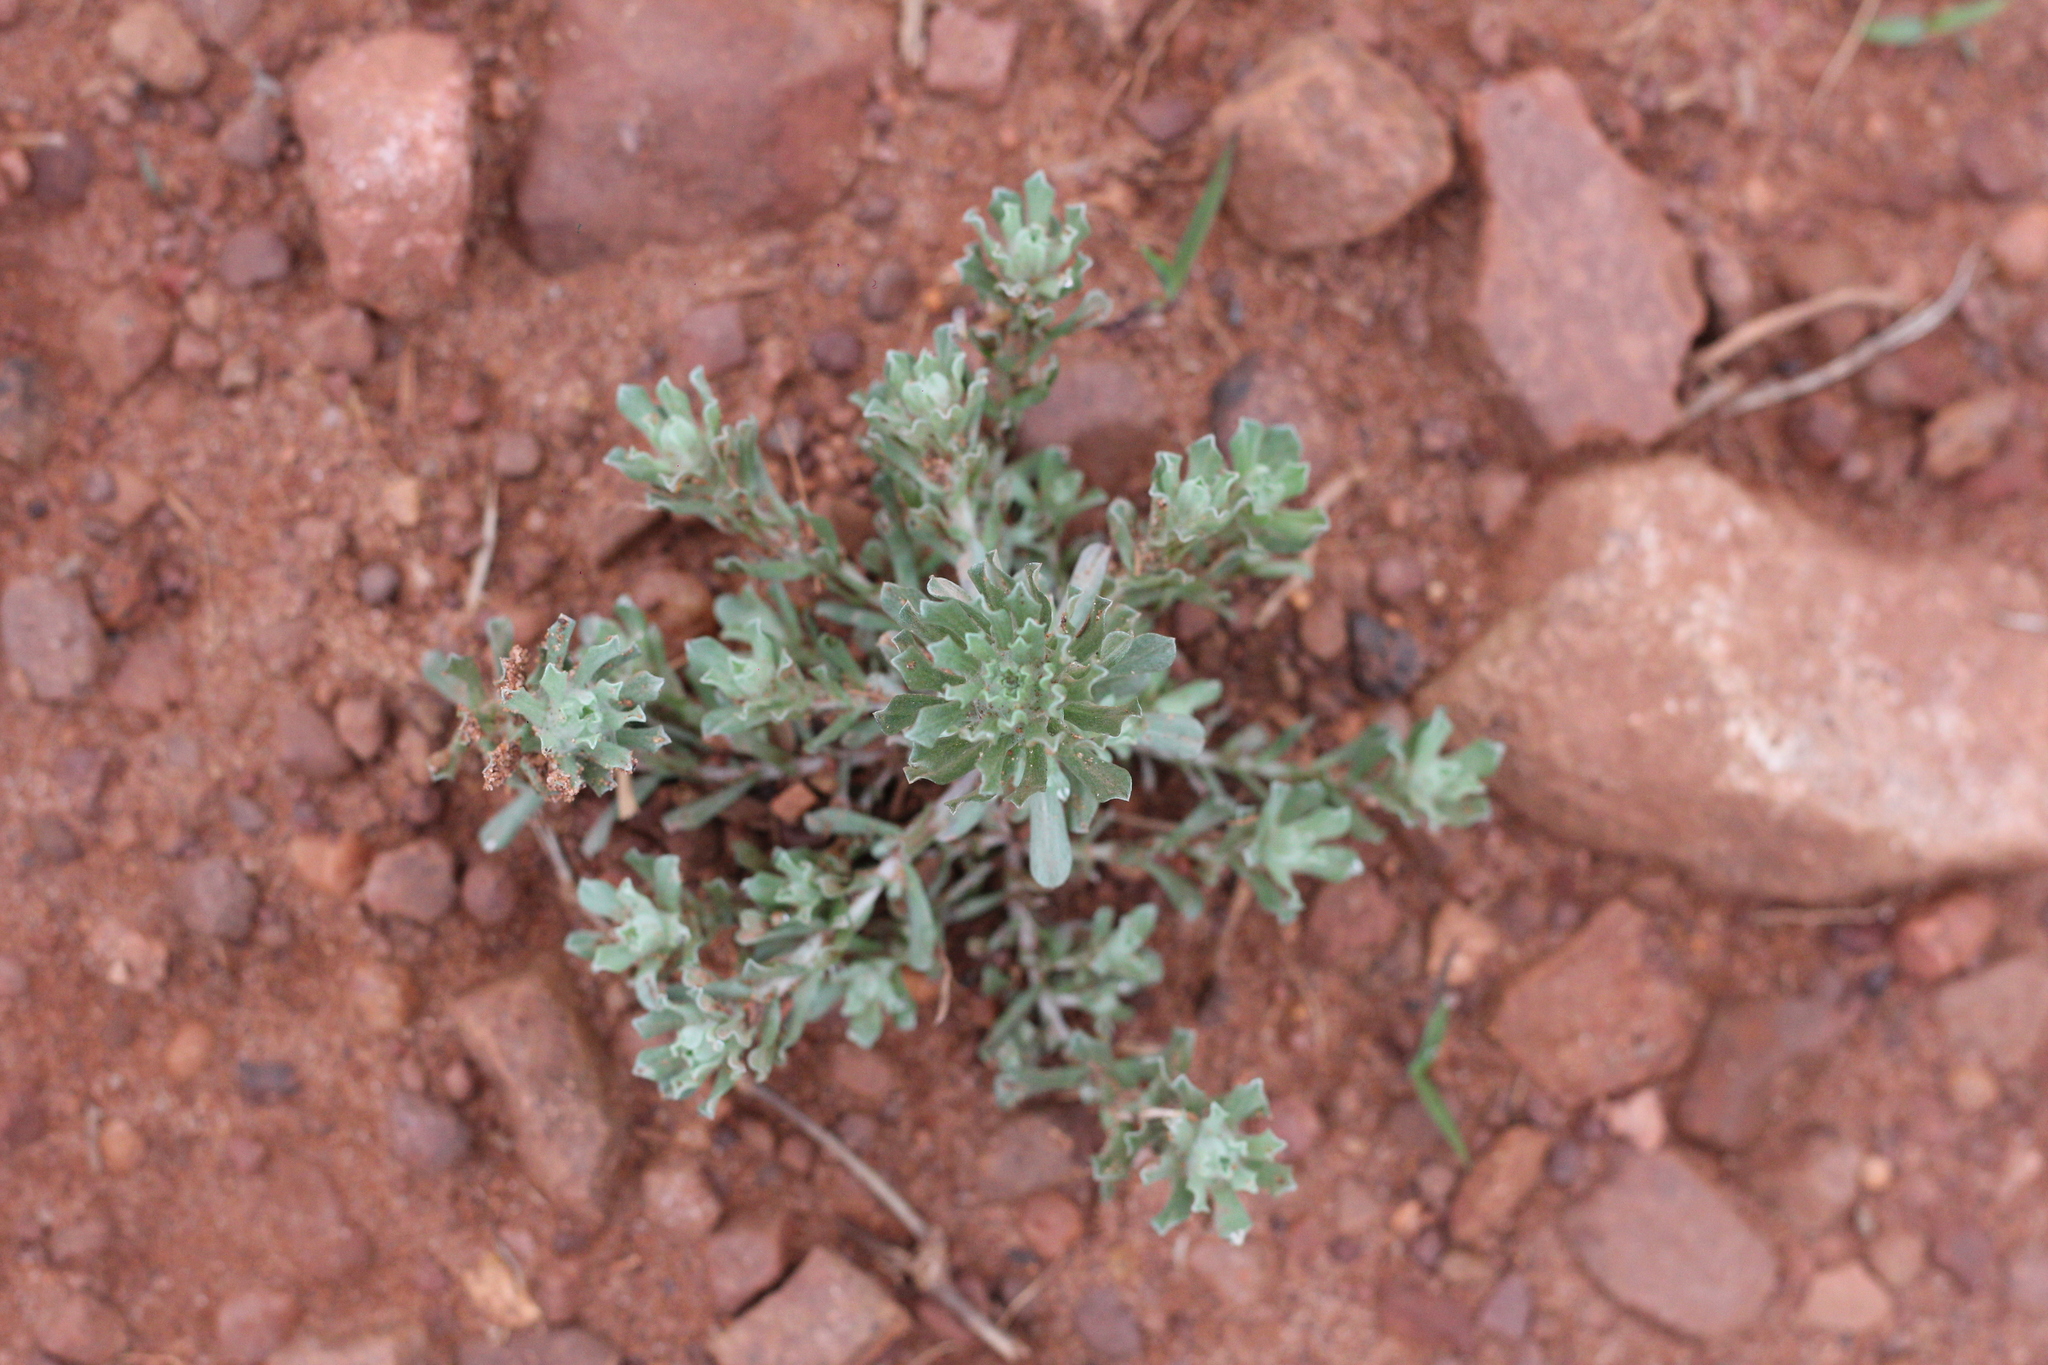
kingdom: Plantae
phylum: Tracheophyta
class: Magnoliopsida
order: Asterales
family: Asteraceae
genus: Facelis
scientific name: Facelis retusa
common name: Annual trampweed
